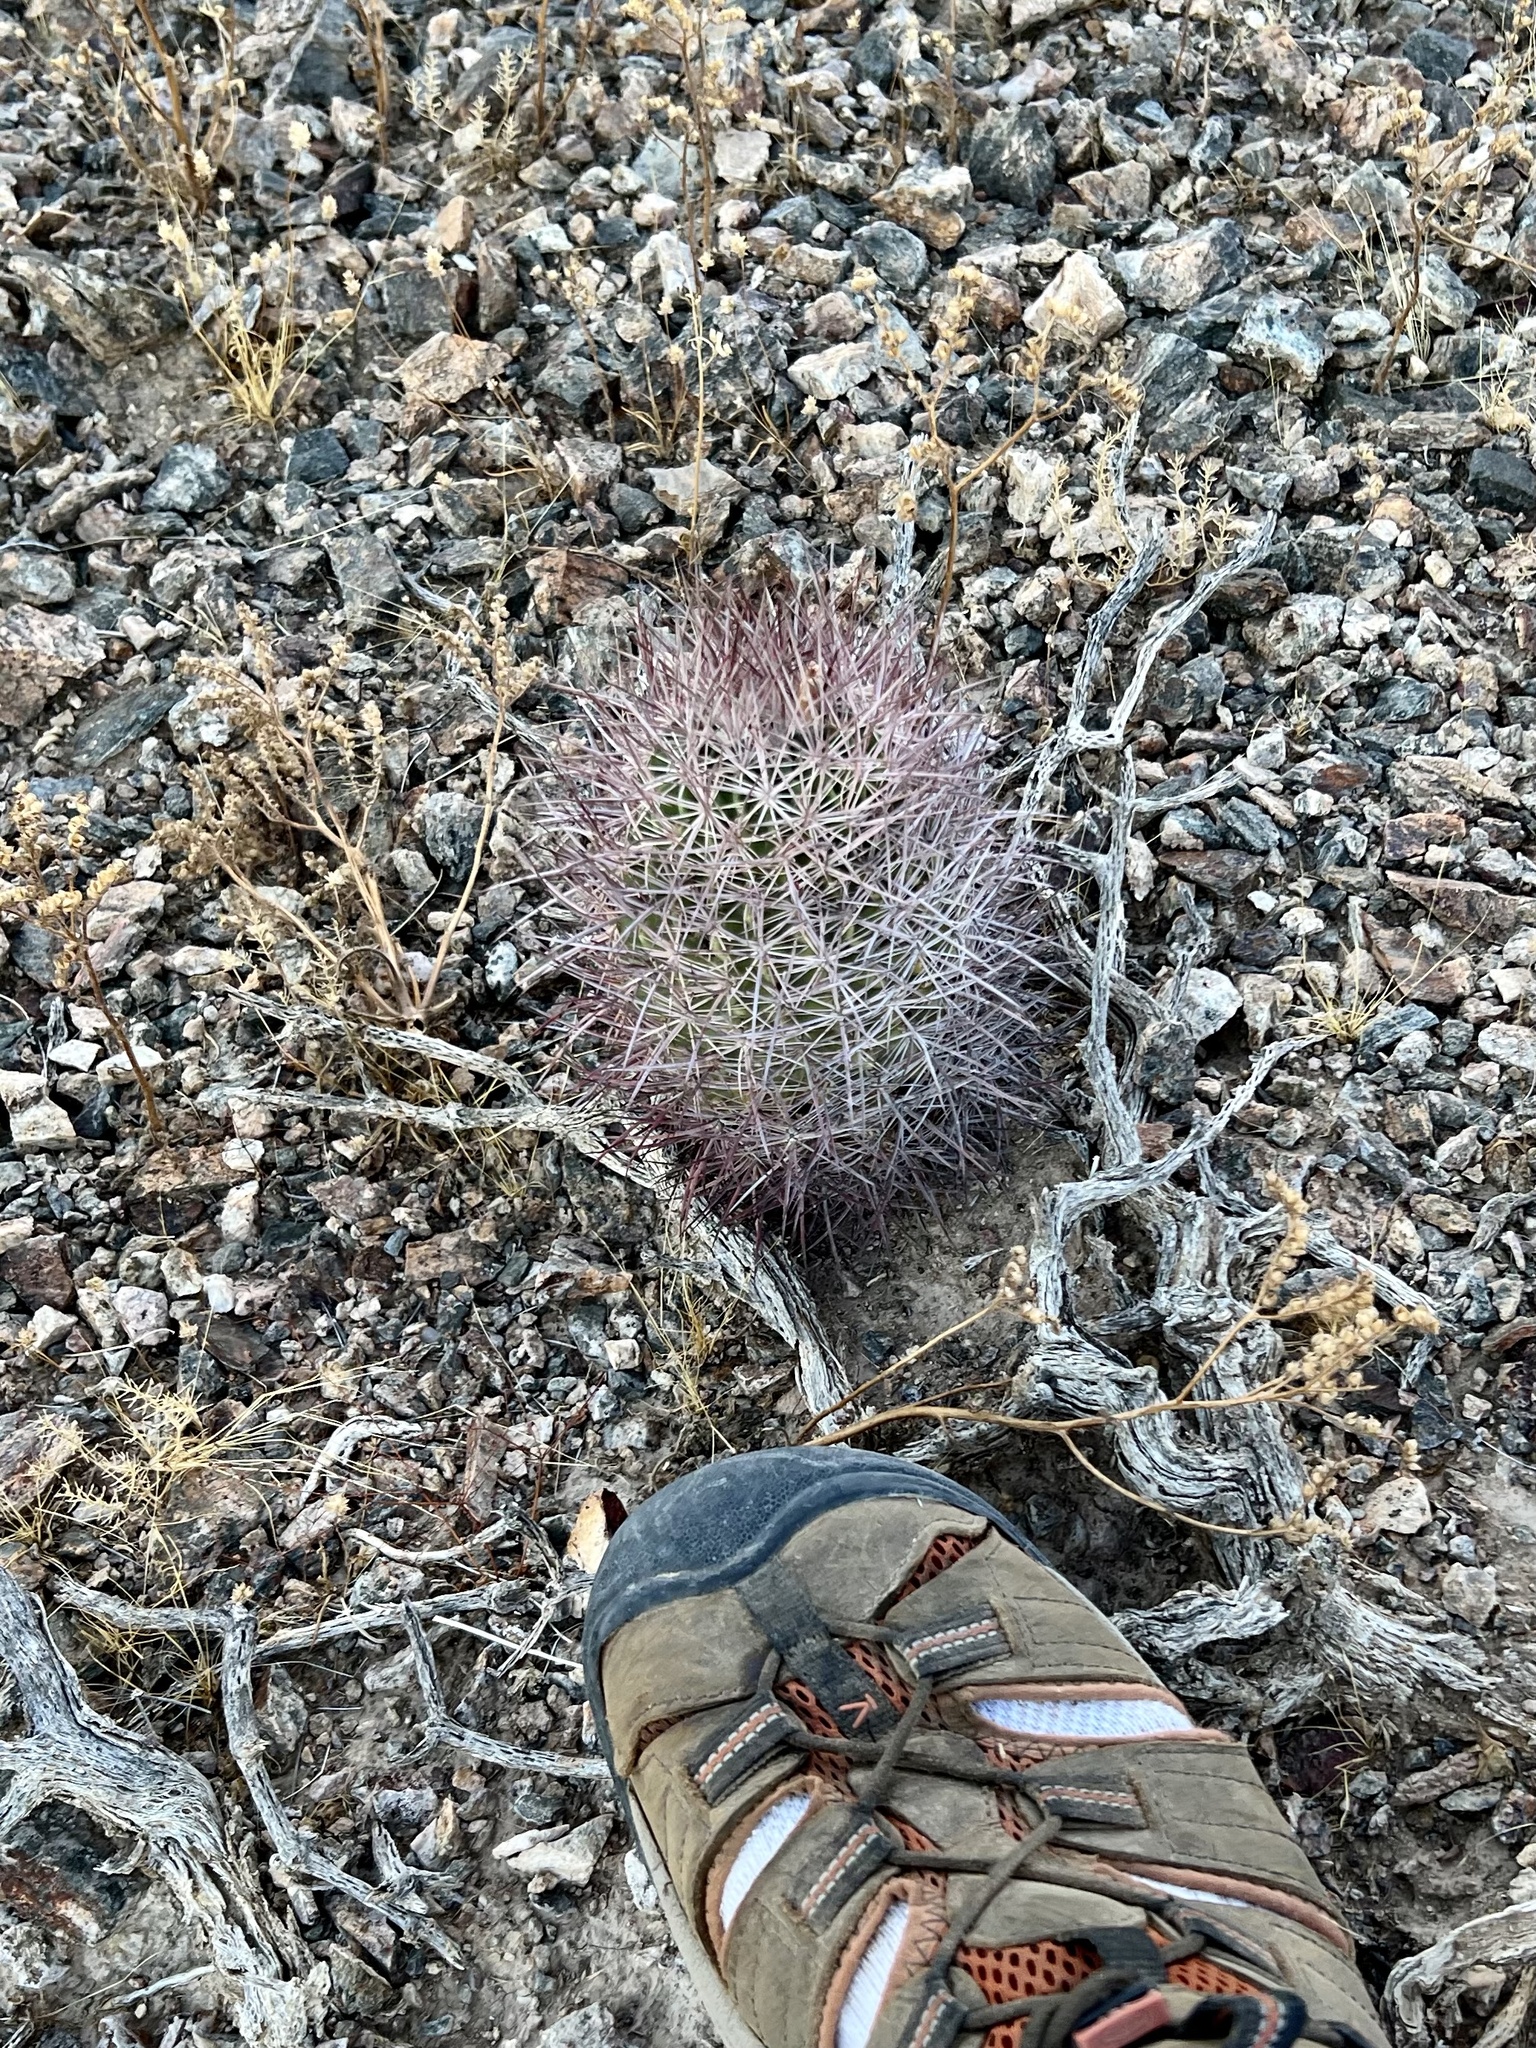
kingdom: Plantae
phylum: Tracheophyta
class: Magnoliopsida
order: Caryophyllales
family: Cactaceae
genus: Sclerocactus
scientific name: Sclerocactus johnsonii
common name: Eight-spine fishhook cactus
